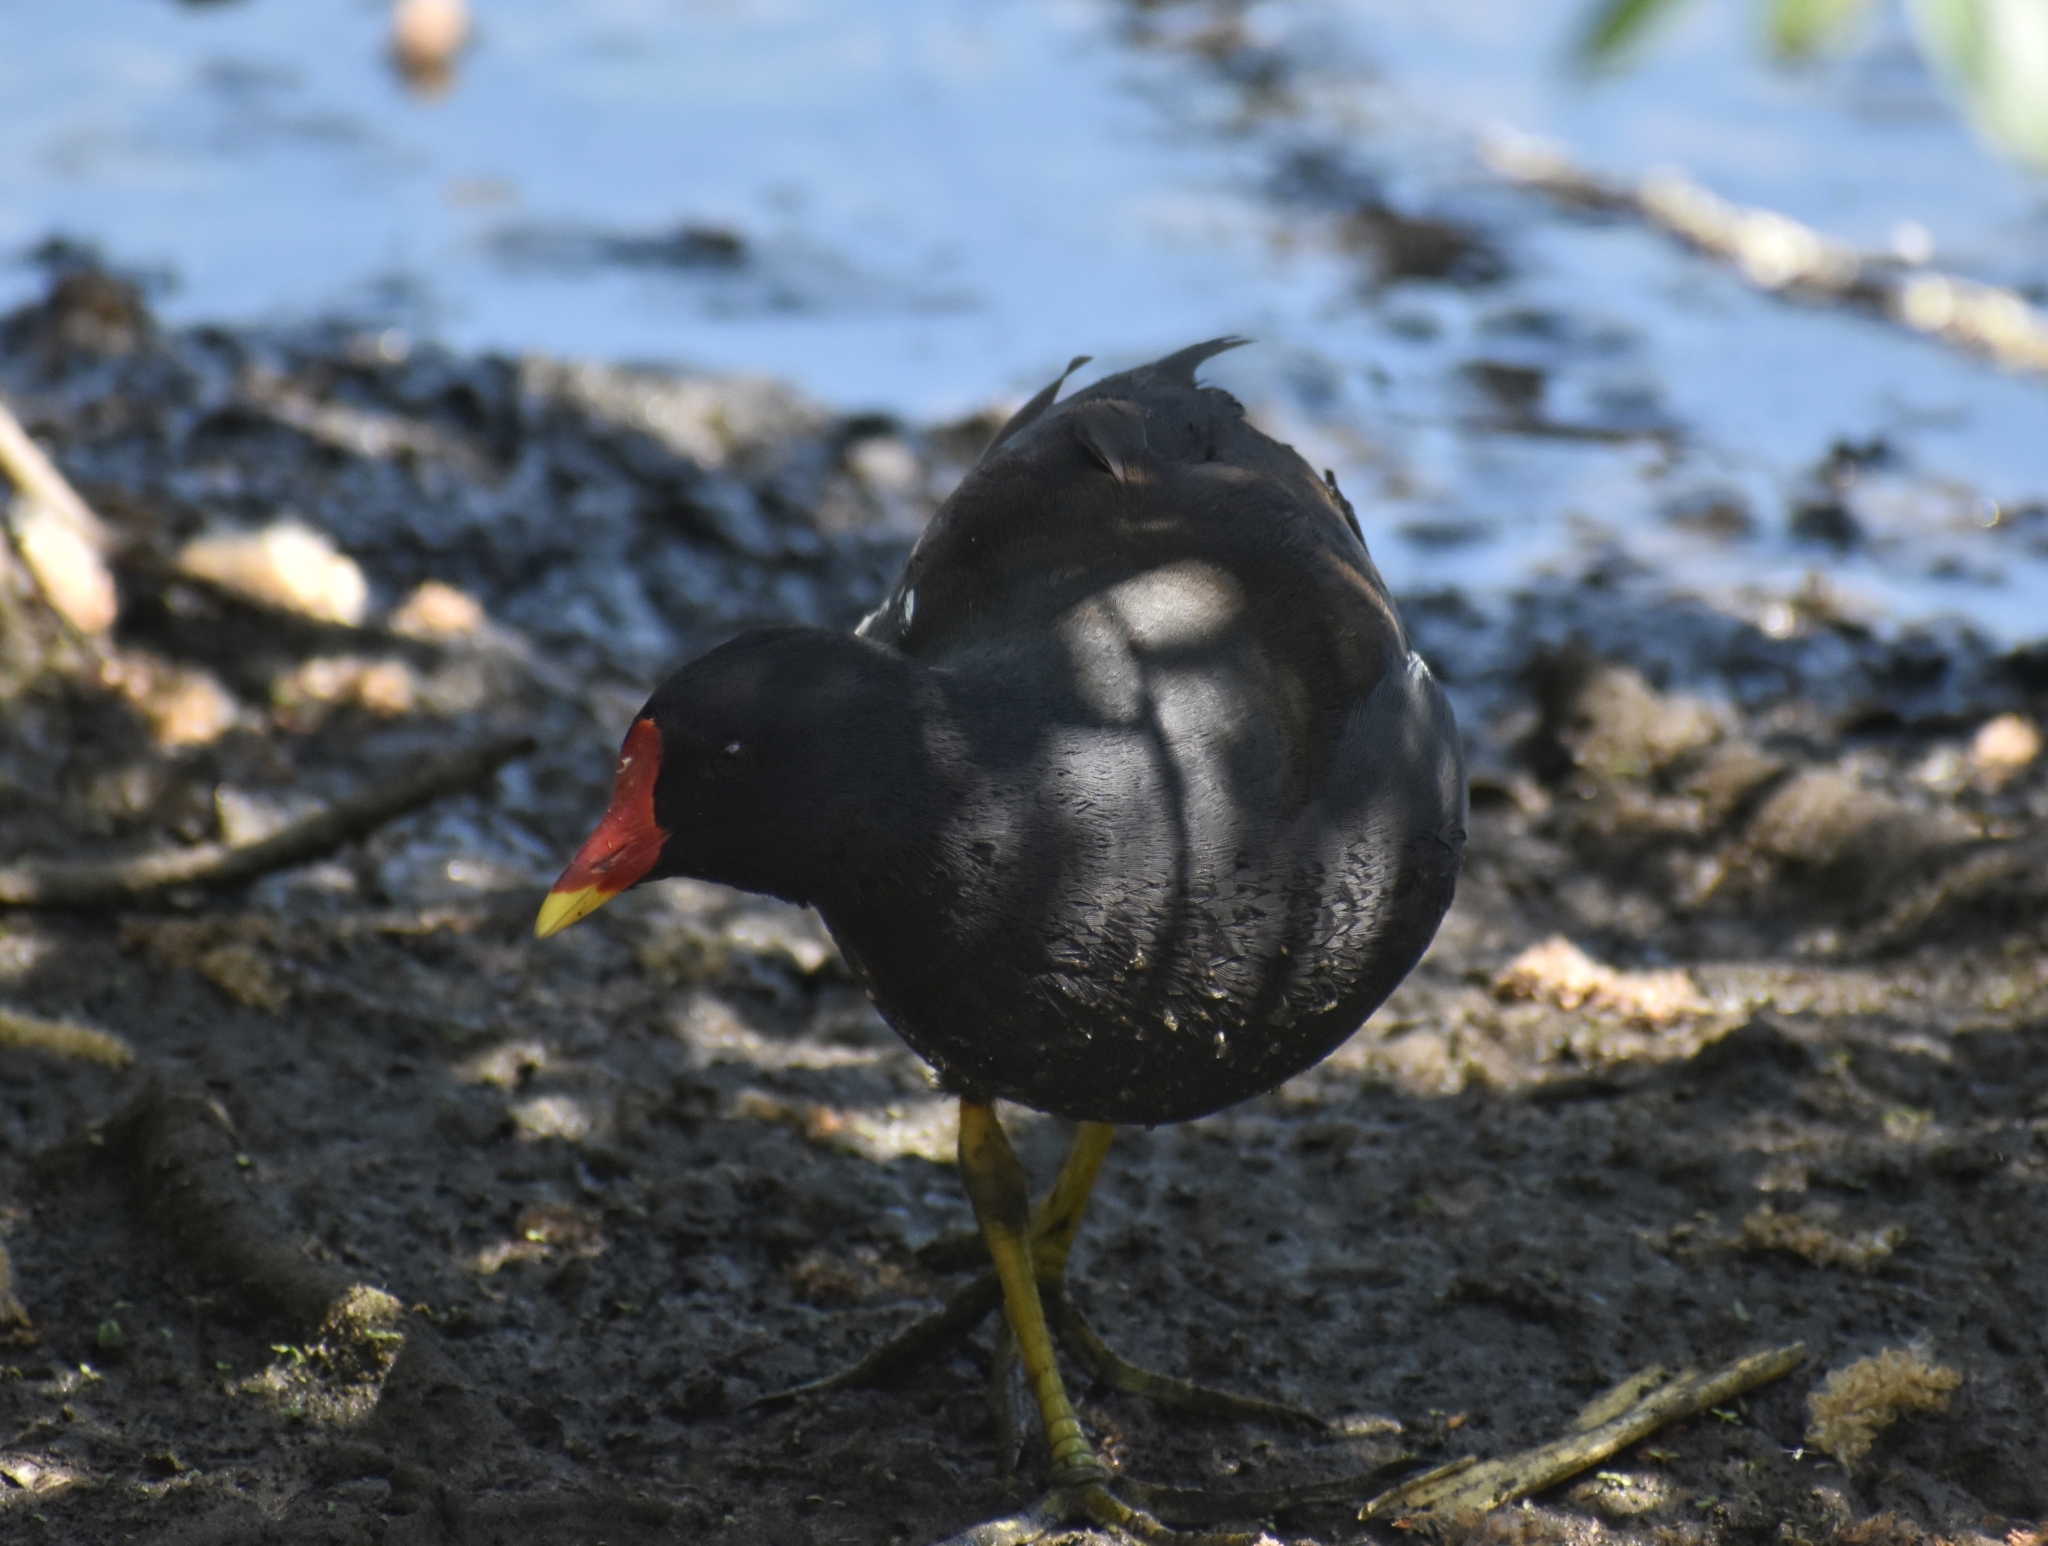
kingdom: Animalia
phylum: Chordata
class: Aves
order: Gruiformes
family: Rallidae
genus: Gallinula
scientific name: Gallinula chloropus
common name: Common moorhen
